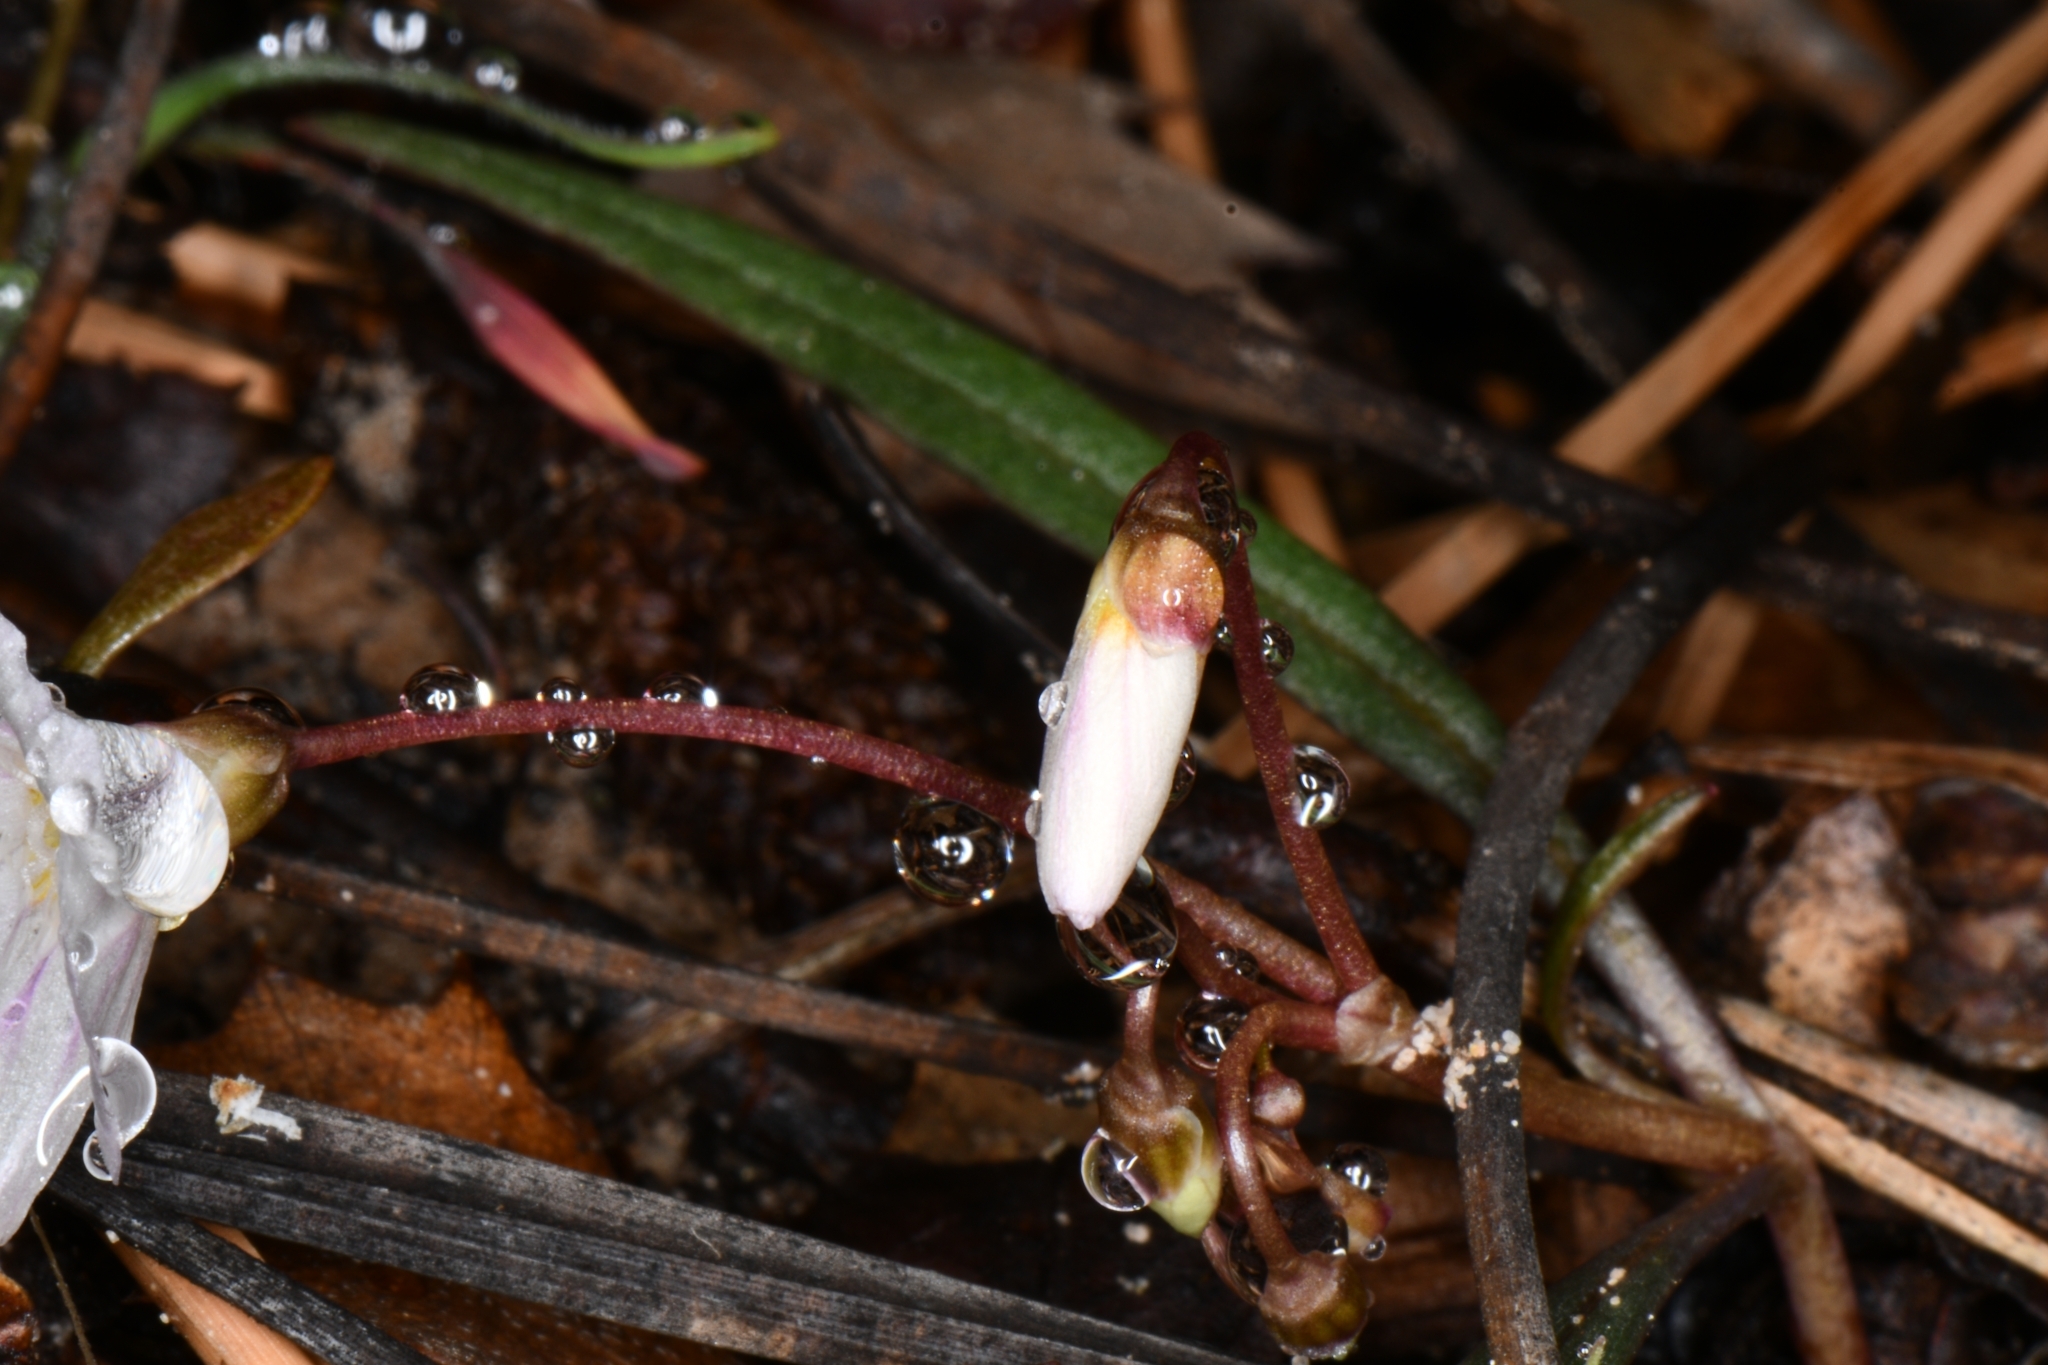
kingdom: Plantae
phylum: Tracheophyta
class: Magnoliopsida
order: Caryophyllales
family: Montiaceae
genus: Claytonia
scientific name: Claytonia rosea
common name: Rocky mountain spring-beauty
